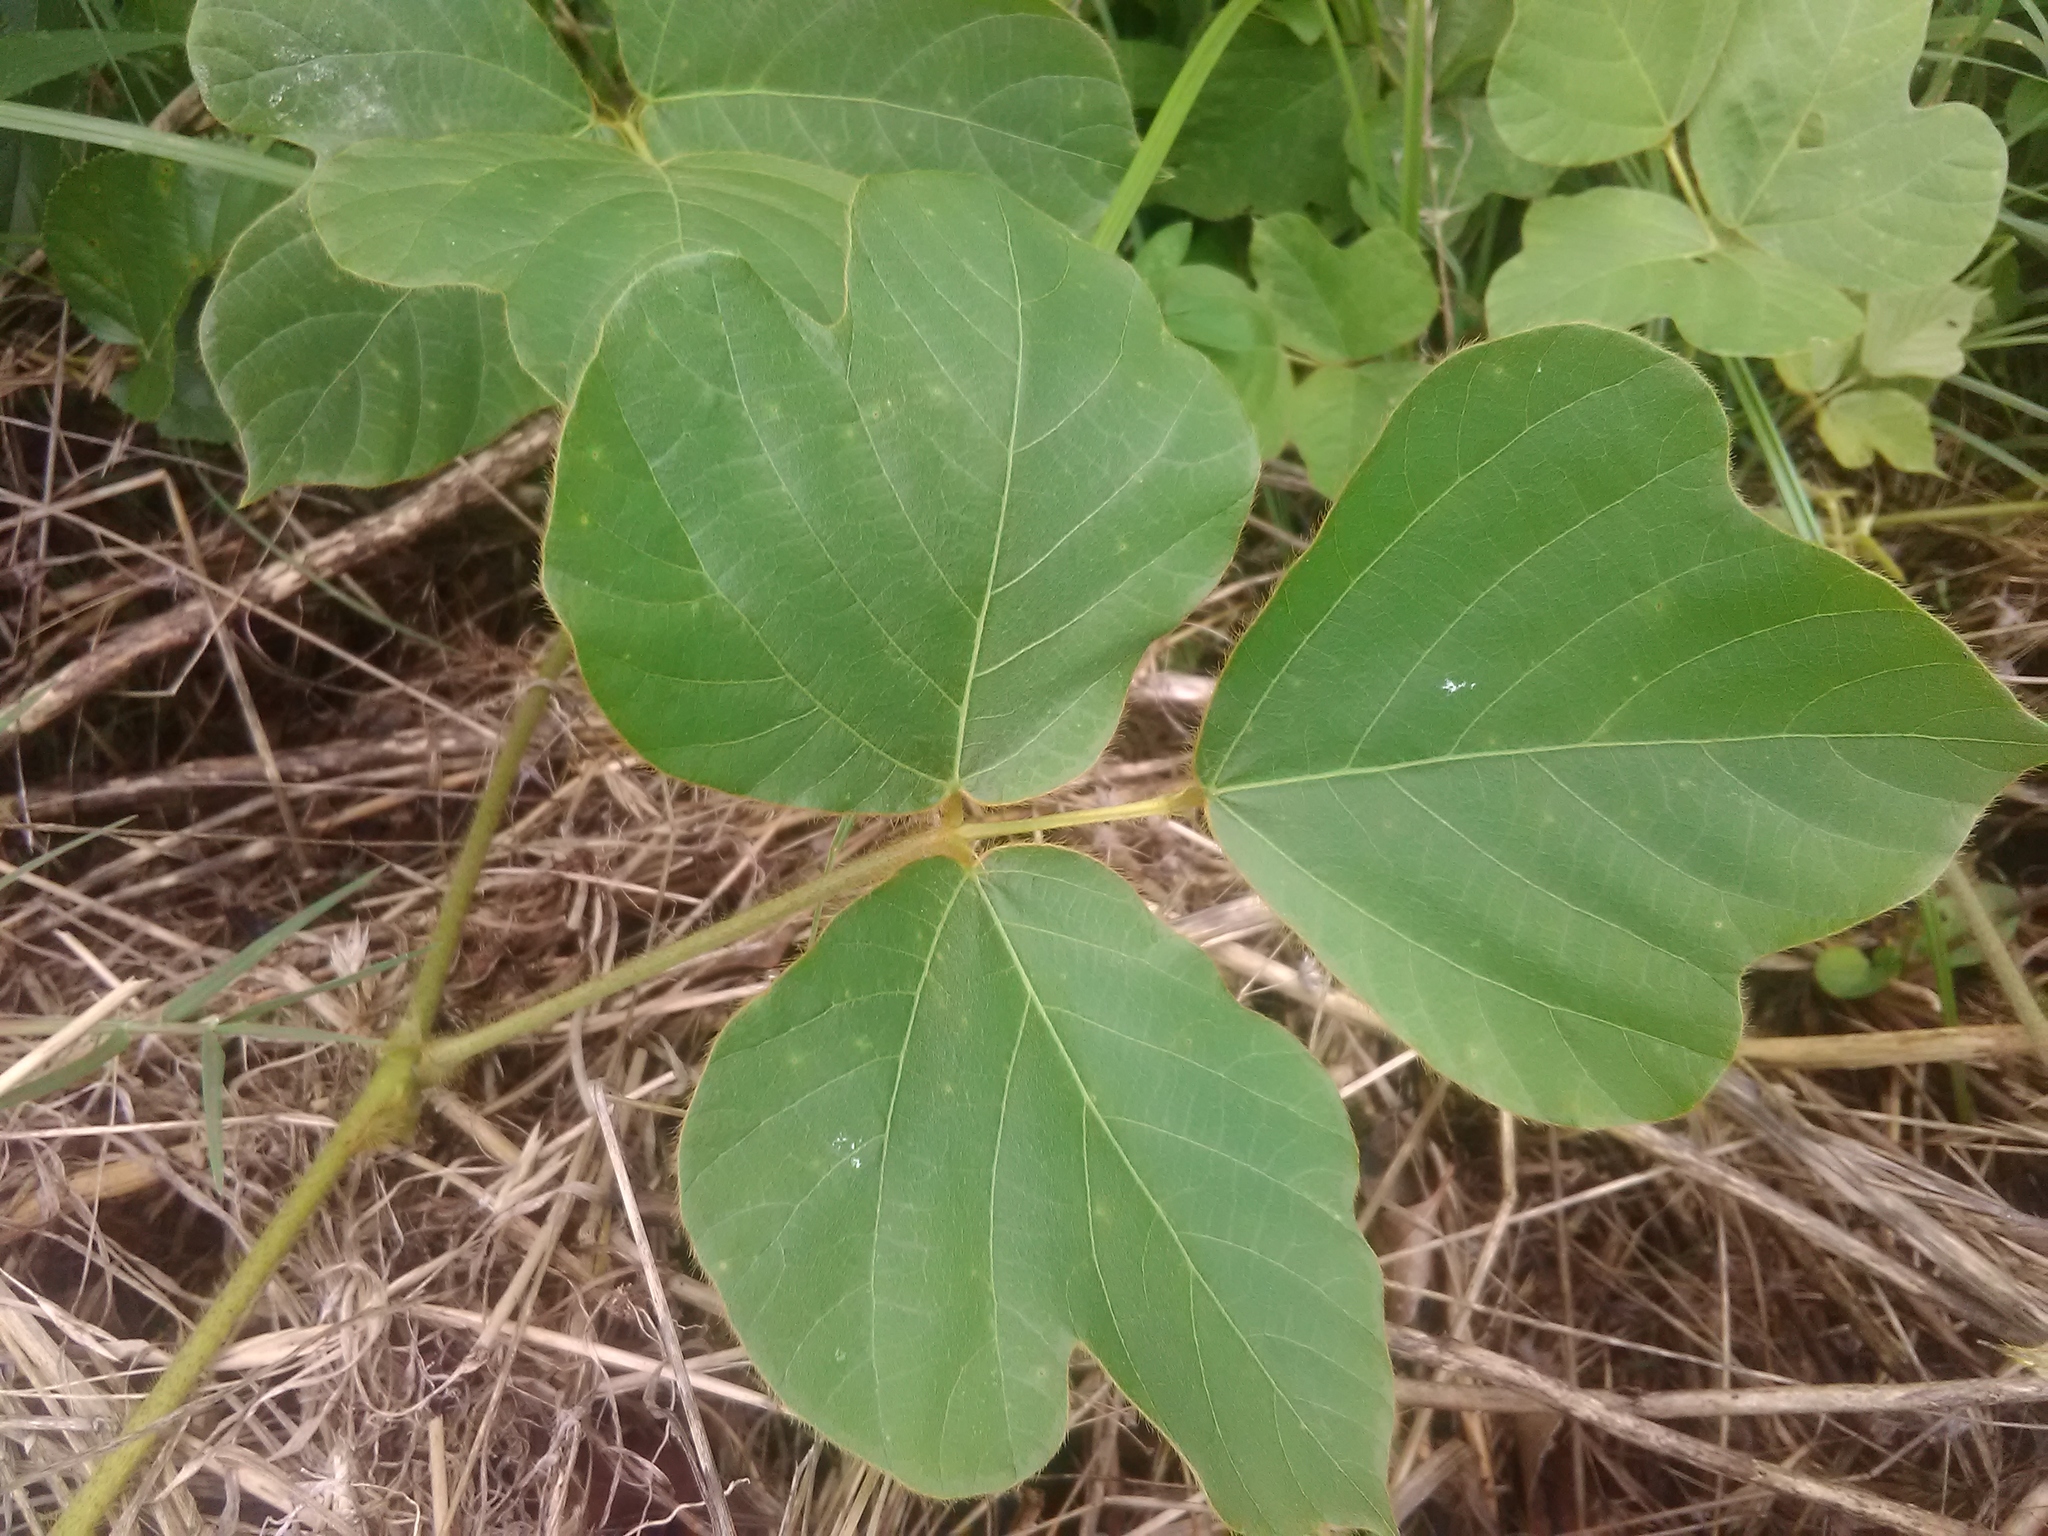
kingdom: Plantae
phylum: Tracheophyta
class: Magnoliopsida
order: Fabales
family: Fabaceae
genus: Pueraria
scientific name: Pueraria montana
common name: Kudzu
